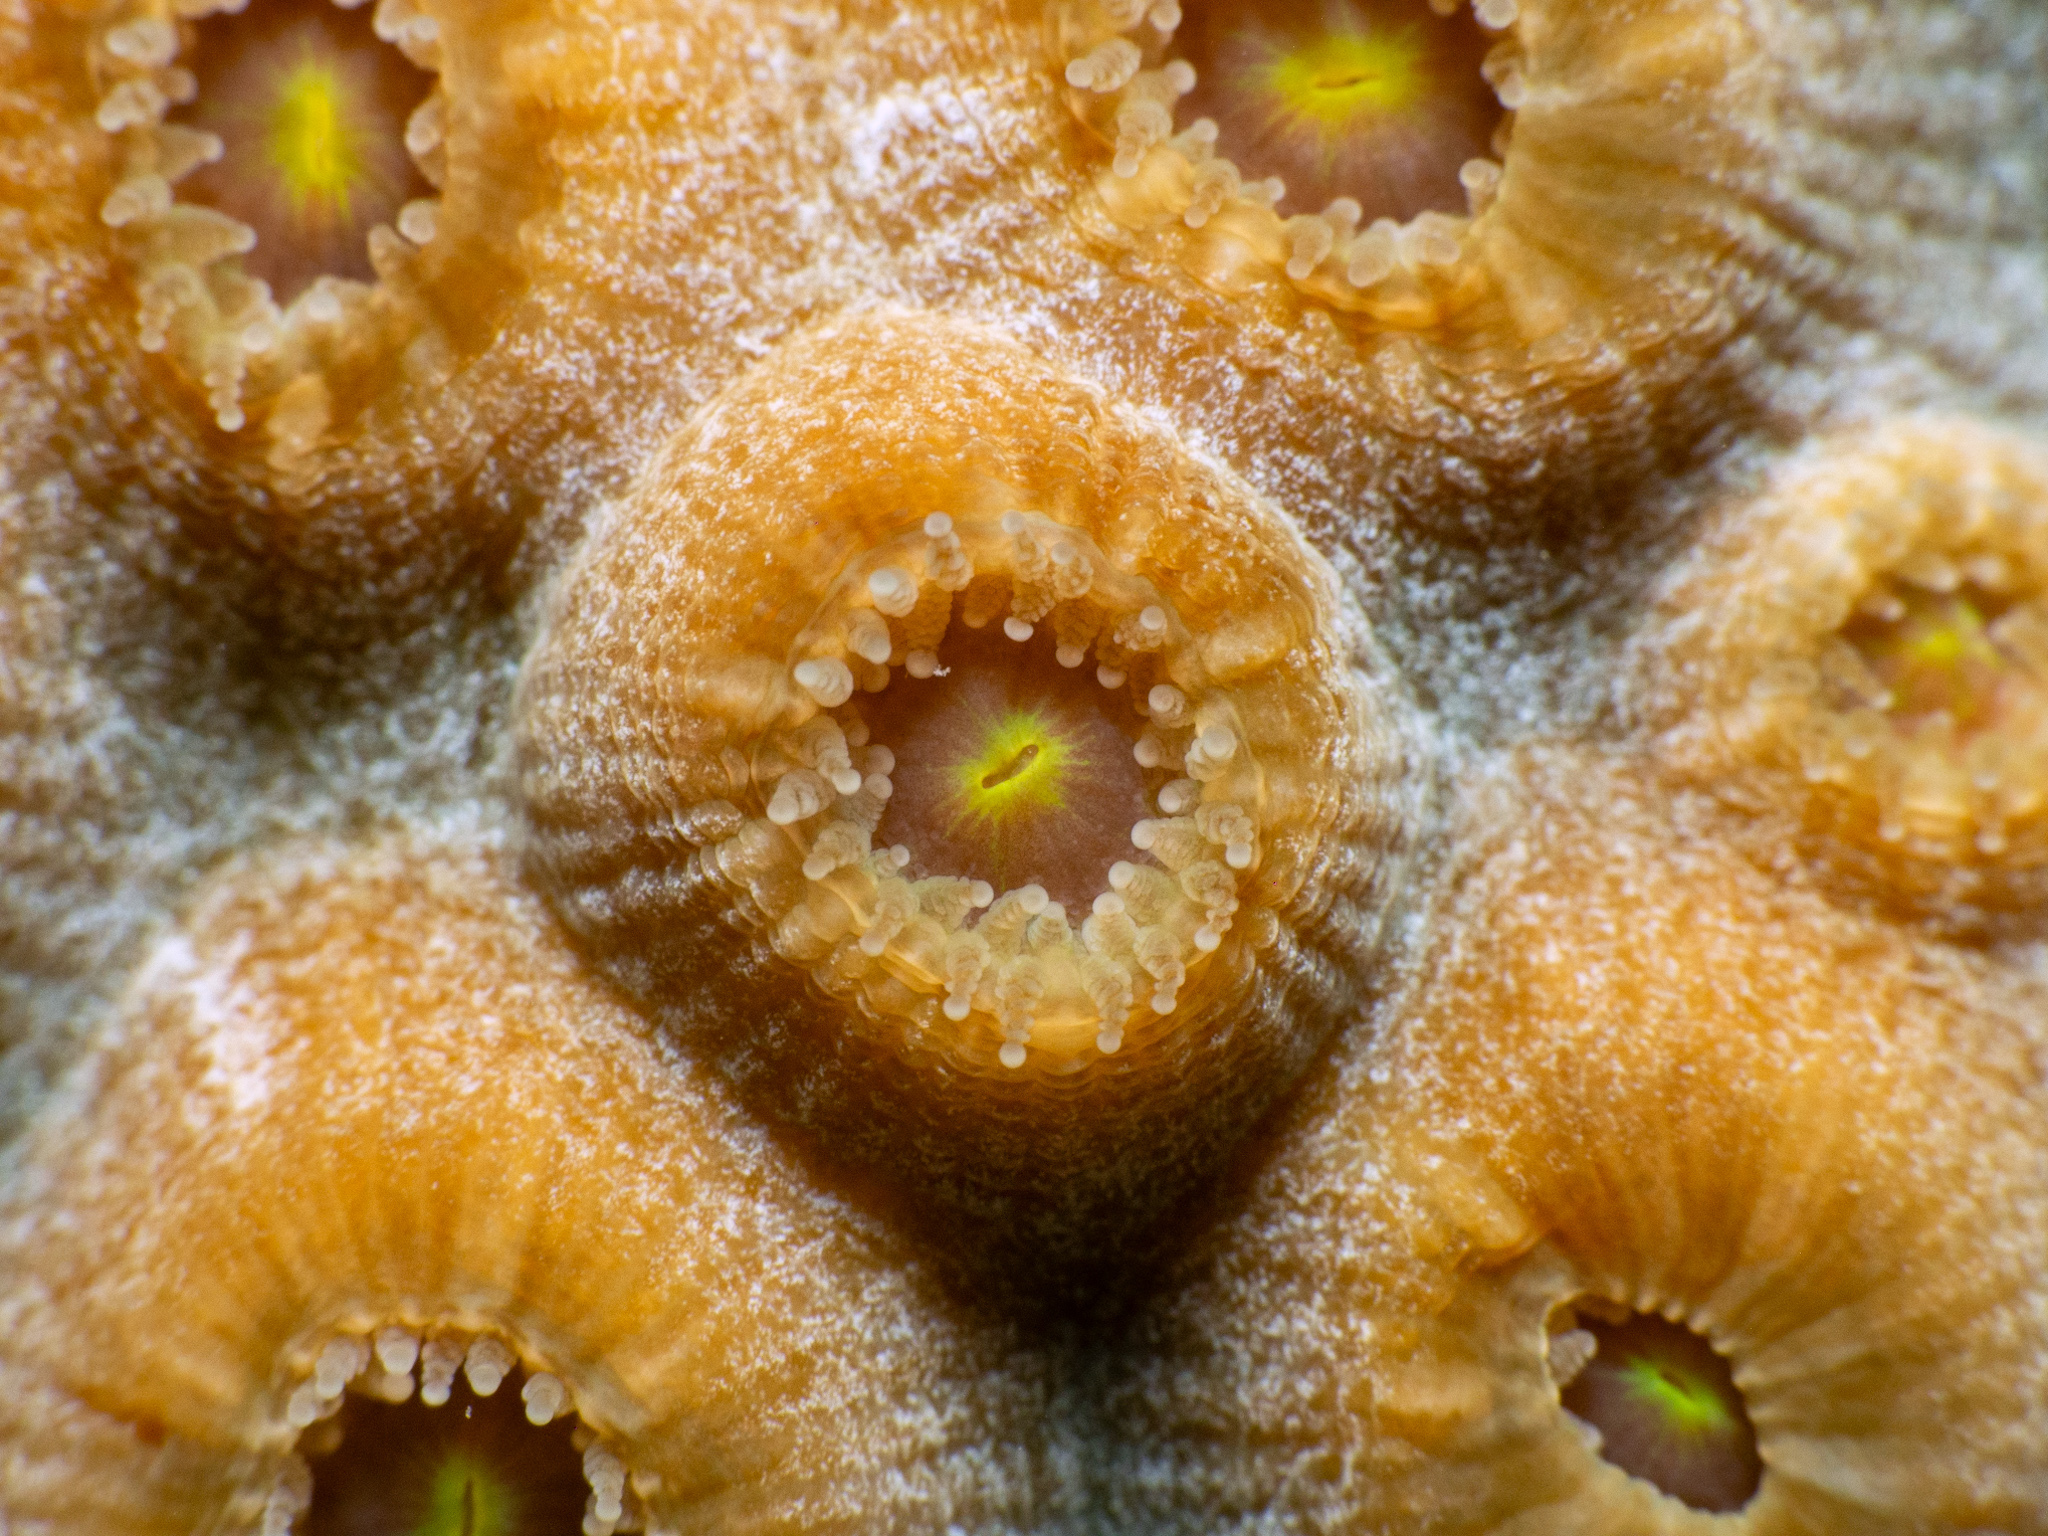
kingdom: Animalia
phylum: Cnidaria
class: Anthozoa
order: Scleractinia
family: Montastraeidae
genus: Montastraea
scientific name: Montastraea cavernosa
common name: Great star coral
